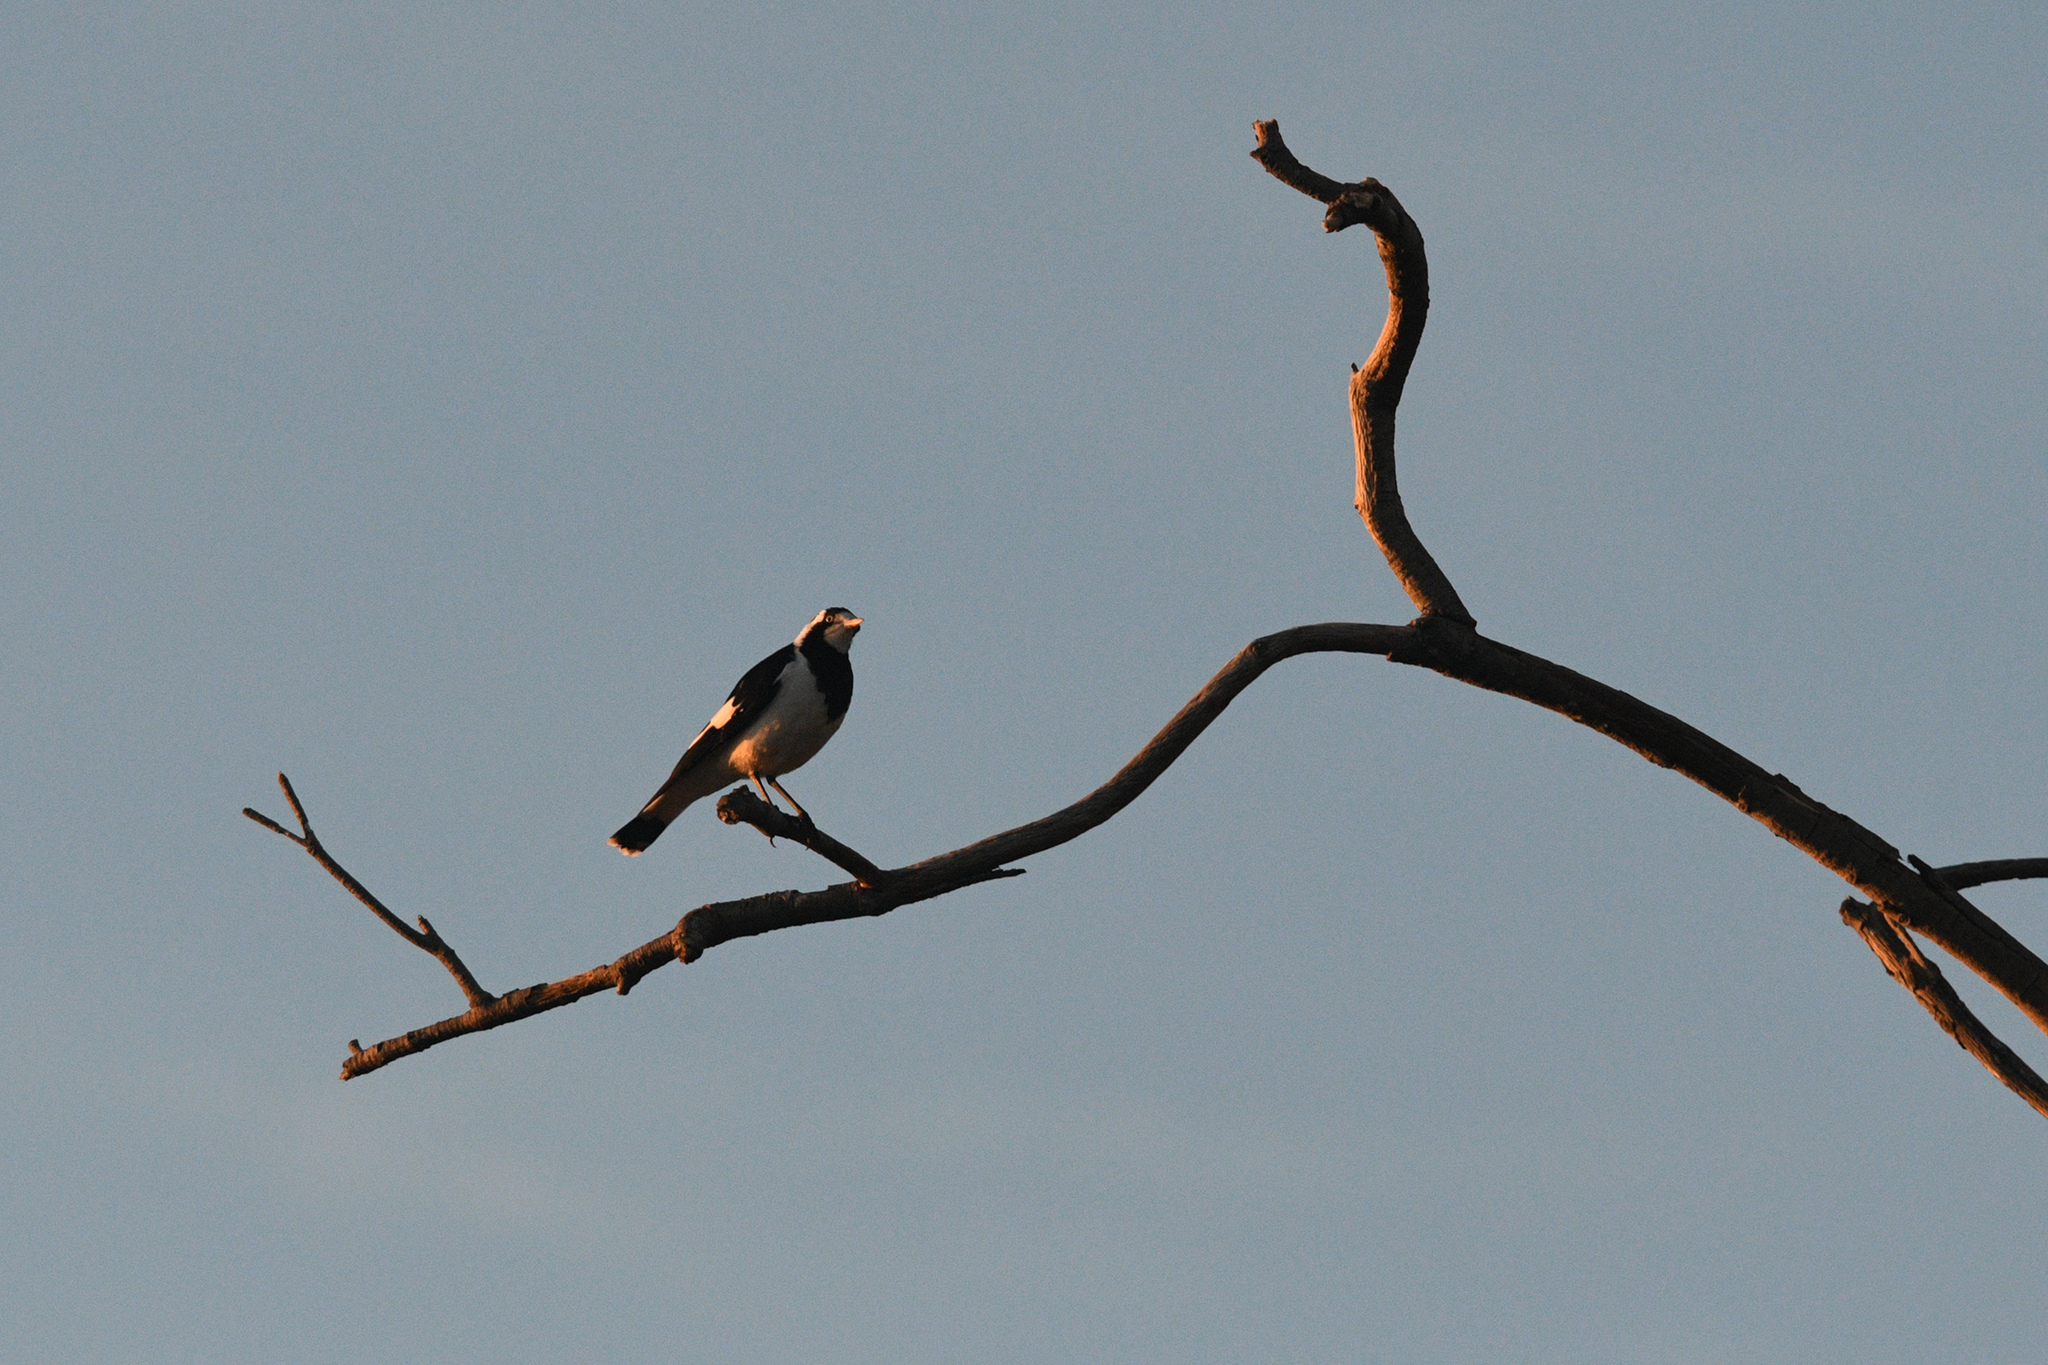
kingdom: Animalia
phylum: Chordata
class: Aves
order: Passeriformes
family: Monarchidae
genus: Grallina
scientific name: Grallina cyanoleuca
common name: Magpie-lark
